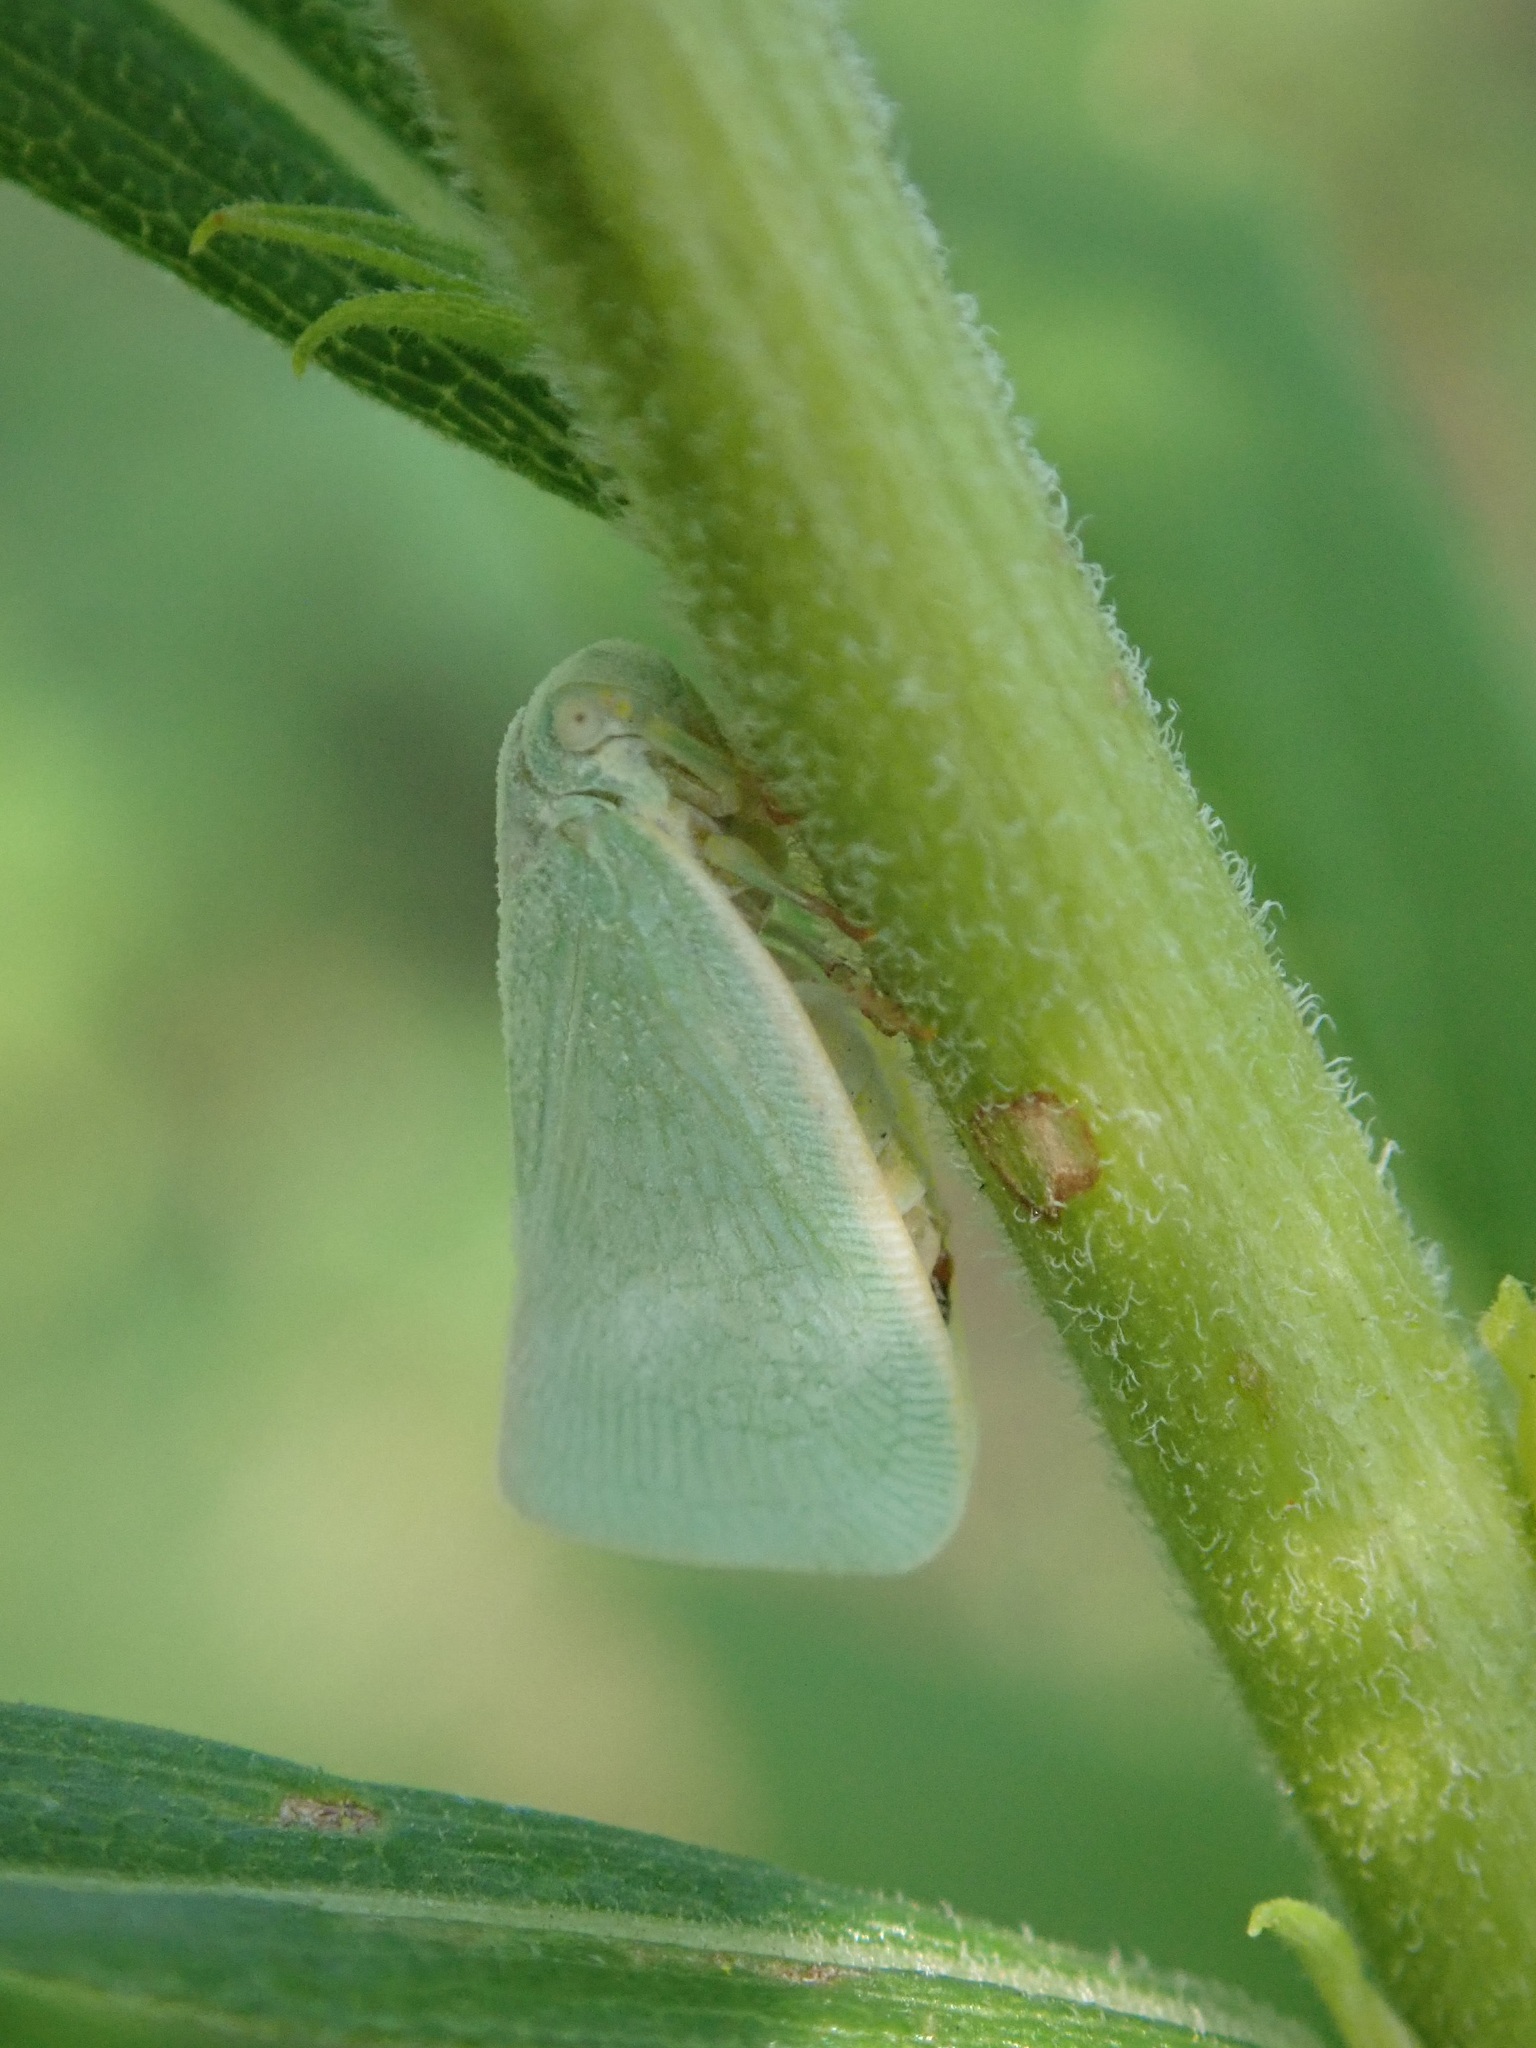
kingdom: Animalia
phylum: Arthropoda
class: Insecta
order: Hemiptera
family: Flatidae
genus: Flatormenis
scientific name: Flatormenis proxima
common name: Northern flatid planthopper
